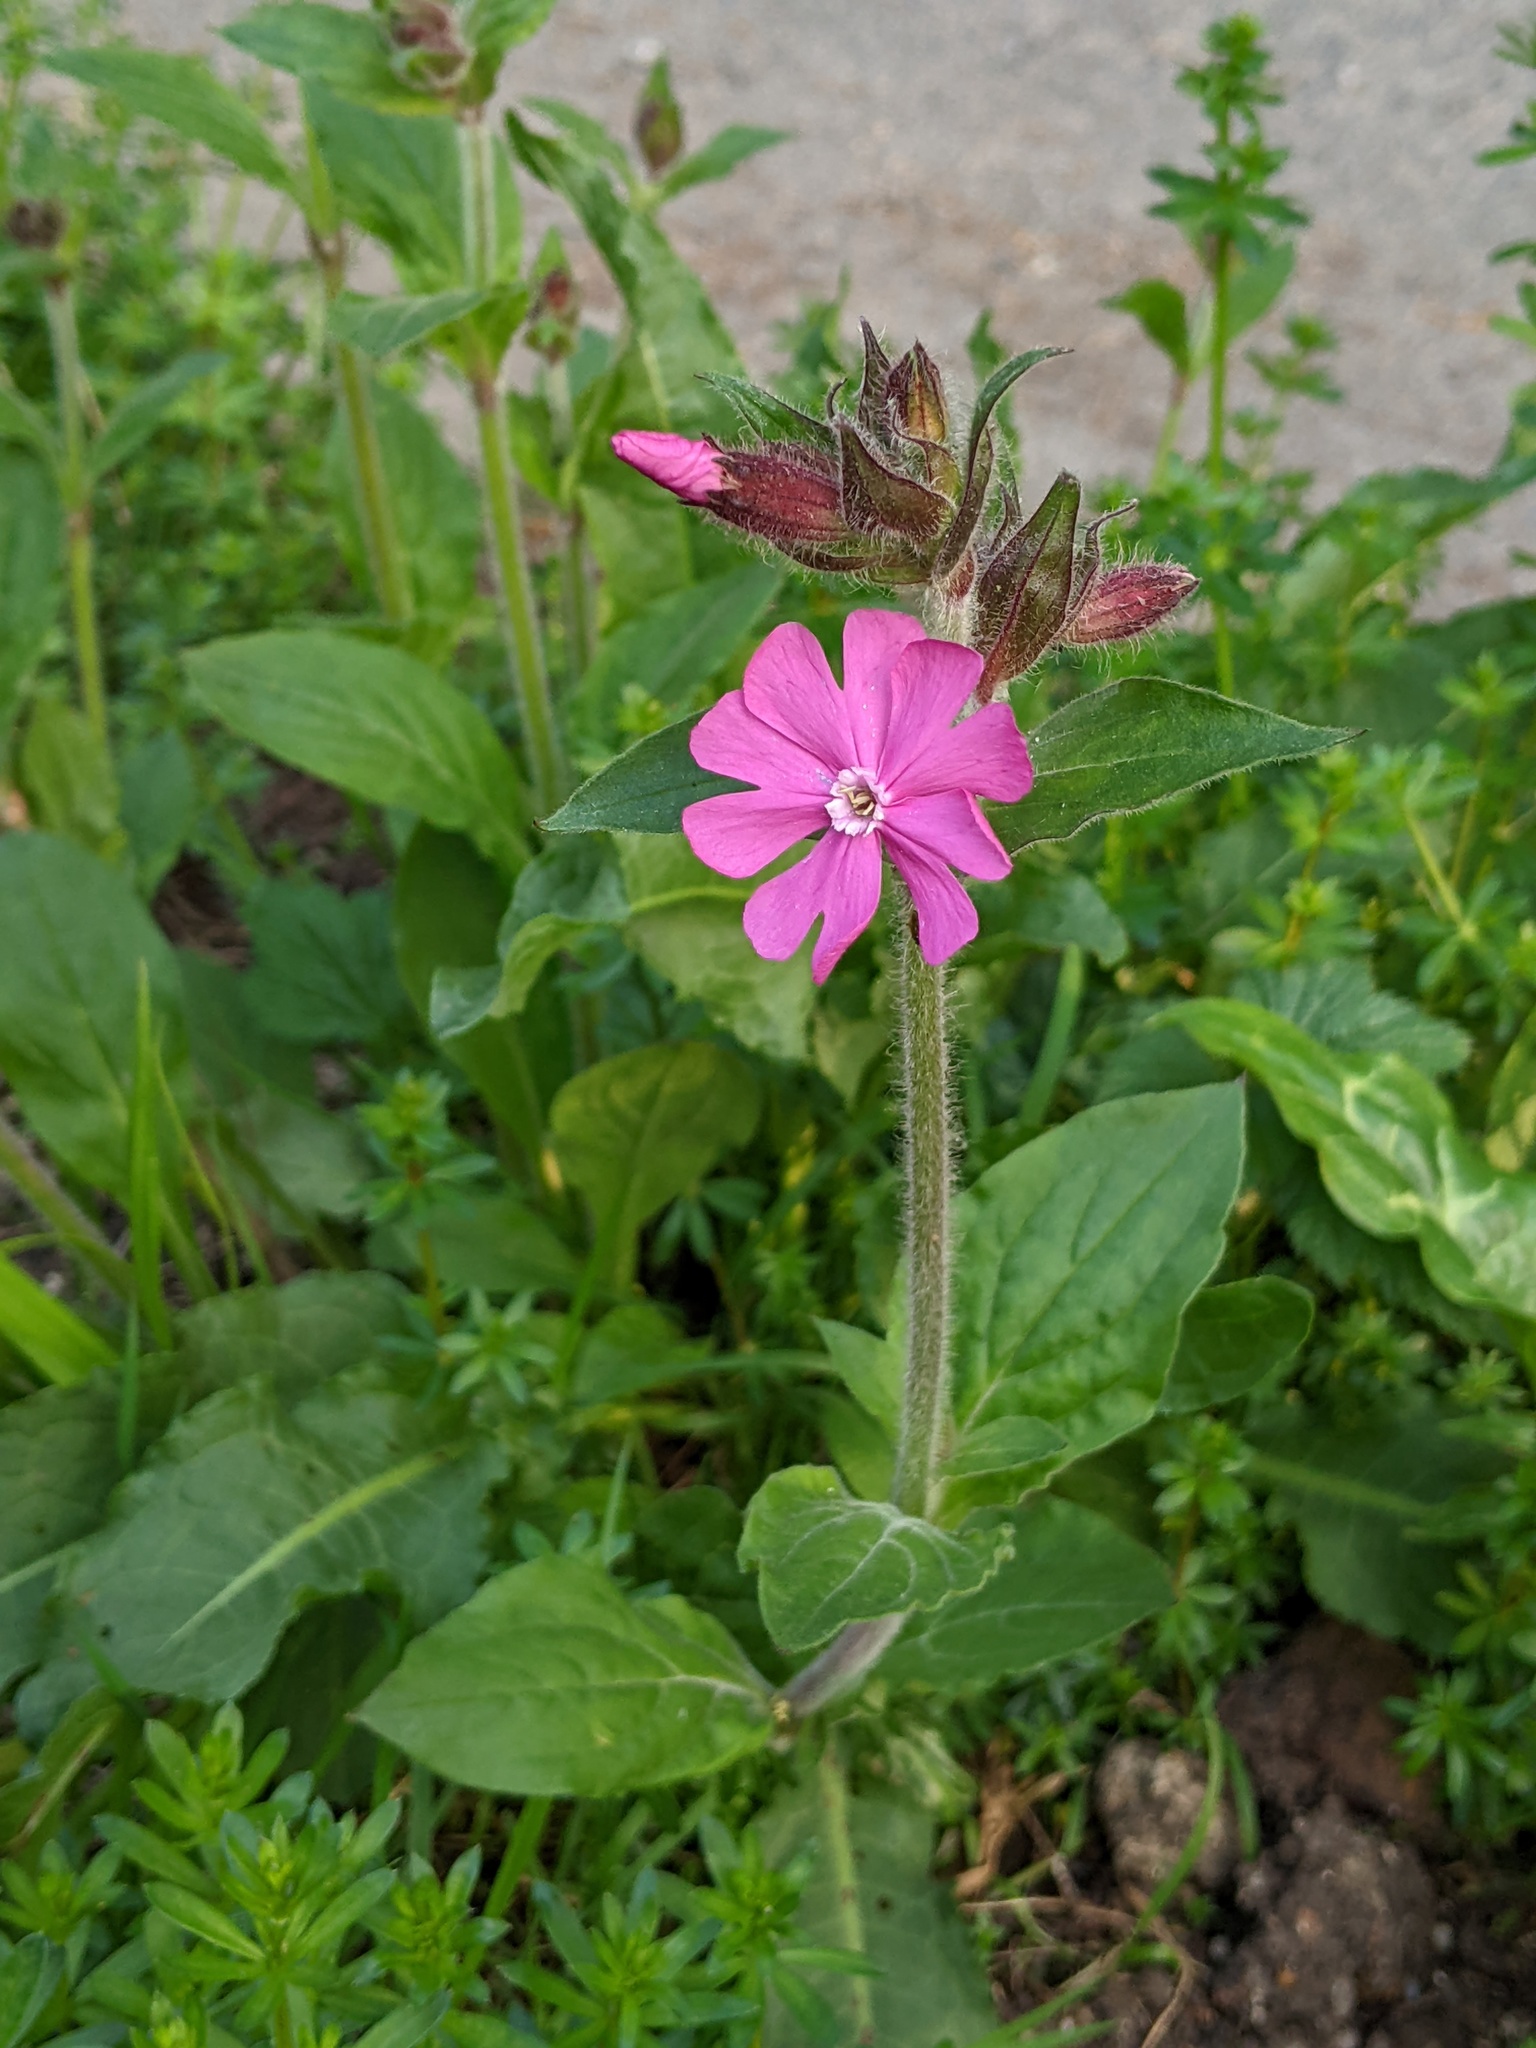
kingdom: Plantae
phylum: Tracheophyta
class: Magnoliopsida
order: Caryophyllales
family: Caryophyllaceae
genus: Silene
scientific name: Silene dioica
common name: Red campion
